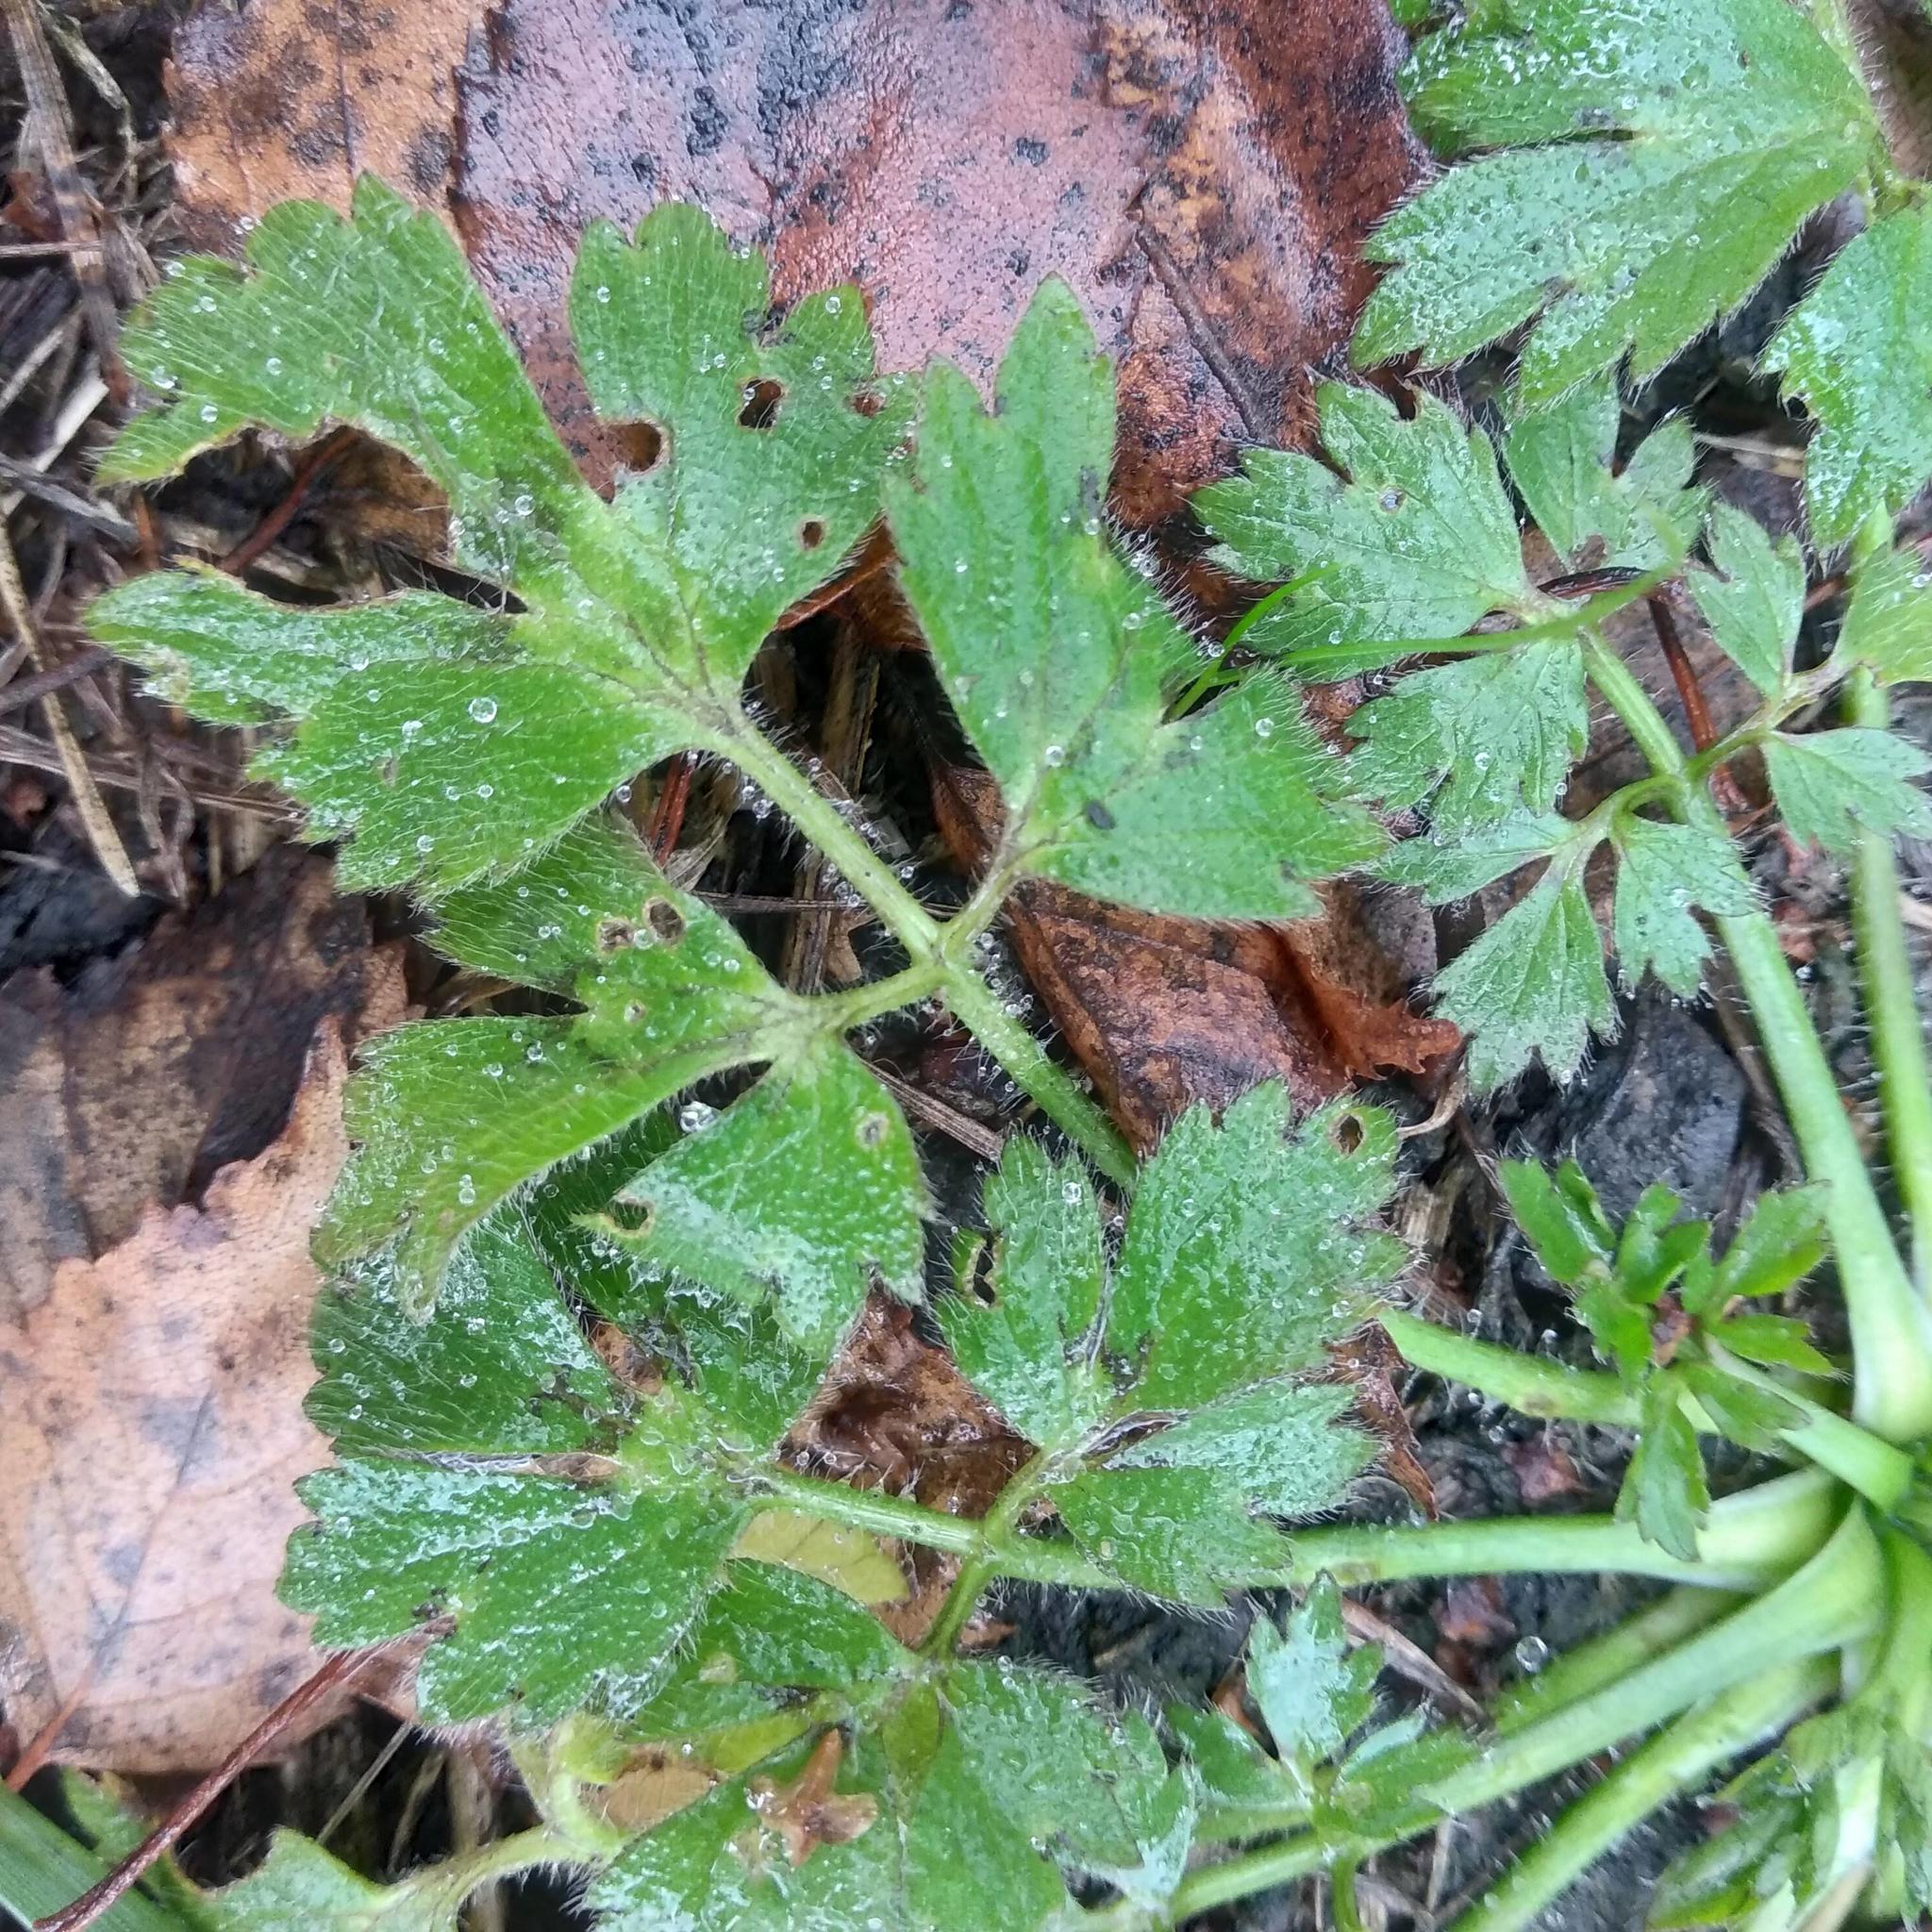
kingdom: Plantae
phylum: Tracheophyta
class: Magnoliopsida
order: Ranunculales
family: Ranunculaceae
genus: Ranunculus
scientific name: Ranunculus repens
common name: Creeping buttercup
